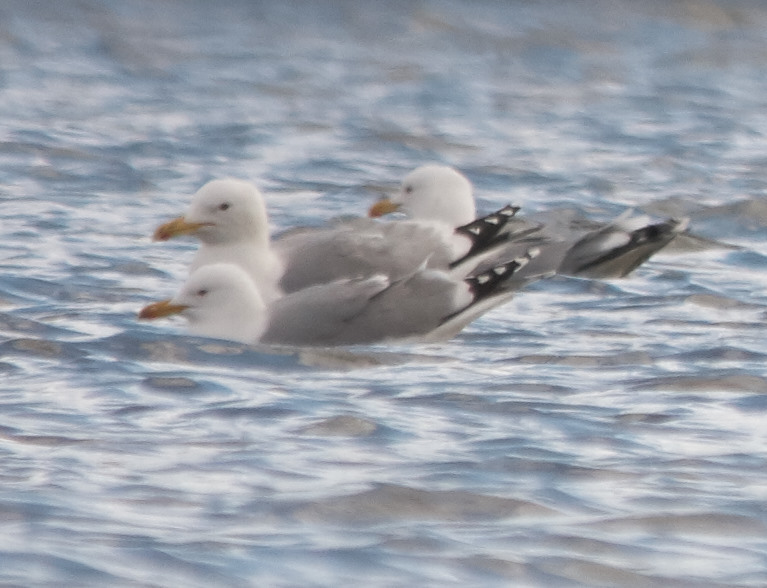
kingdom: Animalia
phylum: Chordata
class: Aves
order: Charadriiformes
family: Laridae
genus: Larus
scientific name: Larus argentatus
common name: Herring gull
